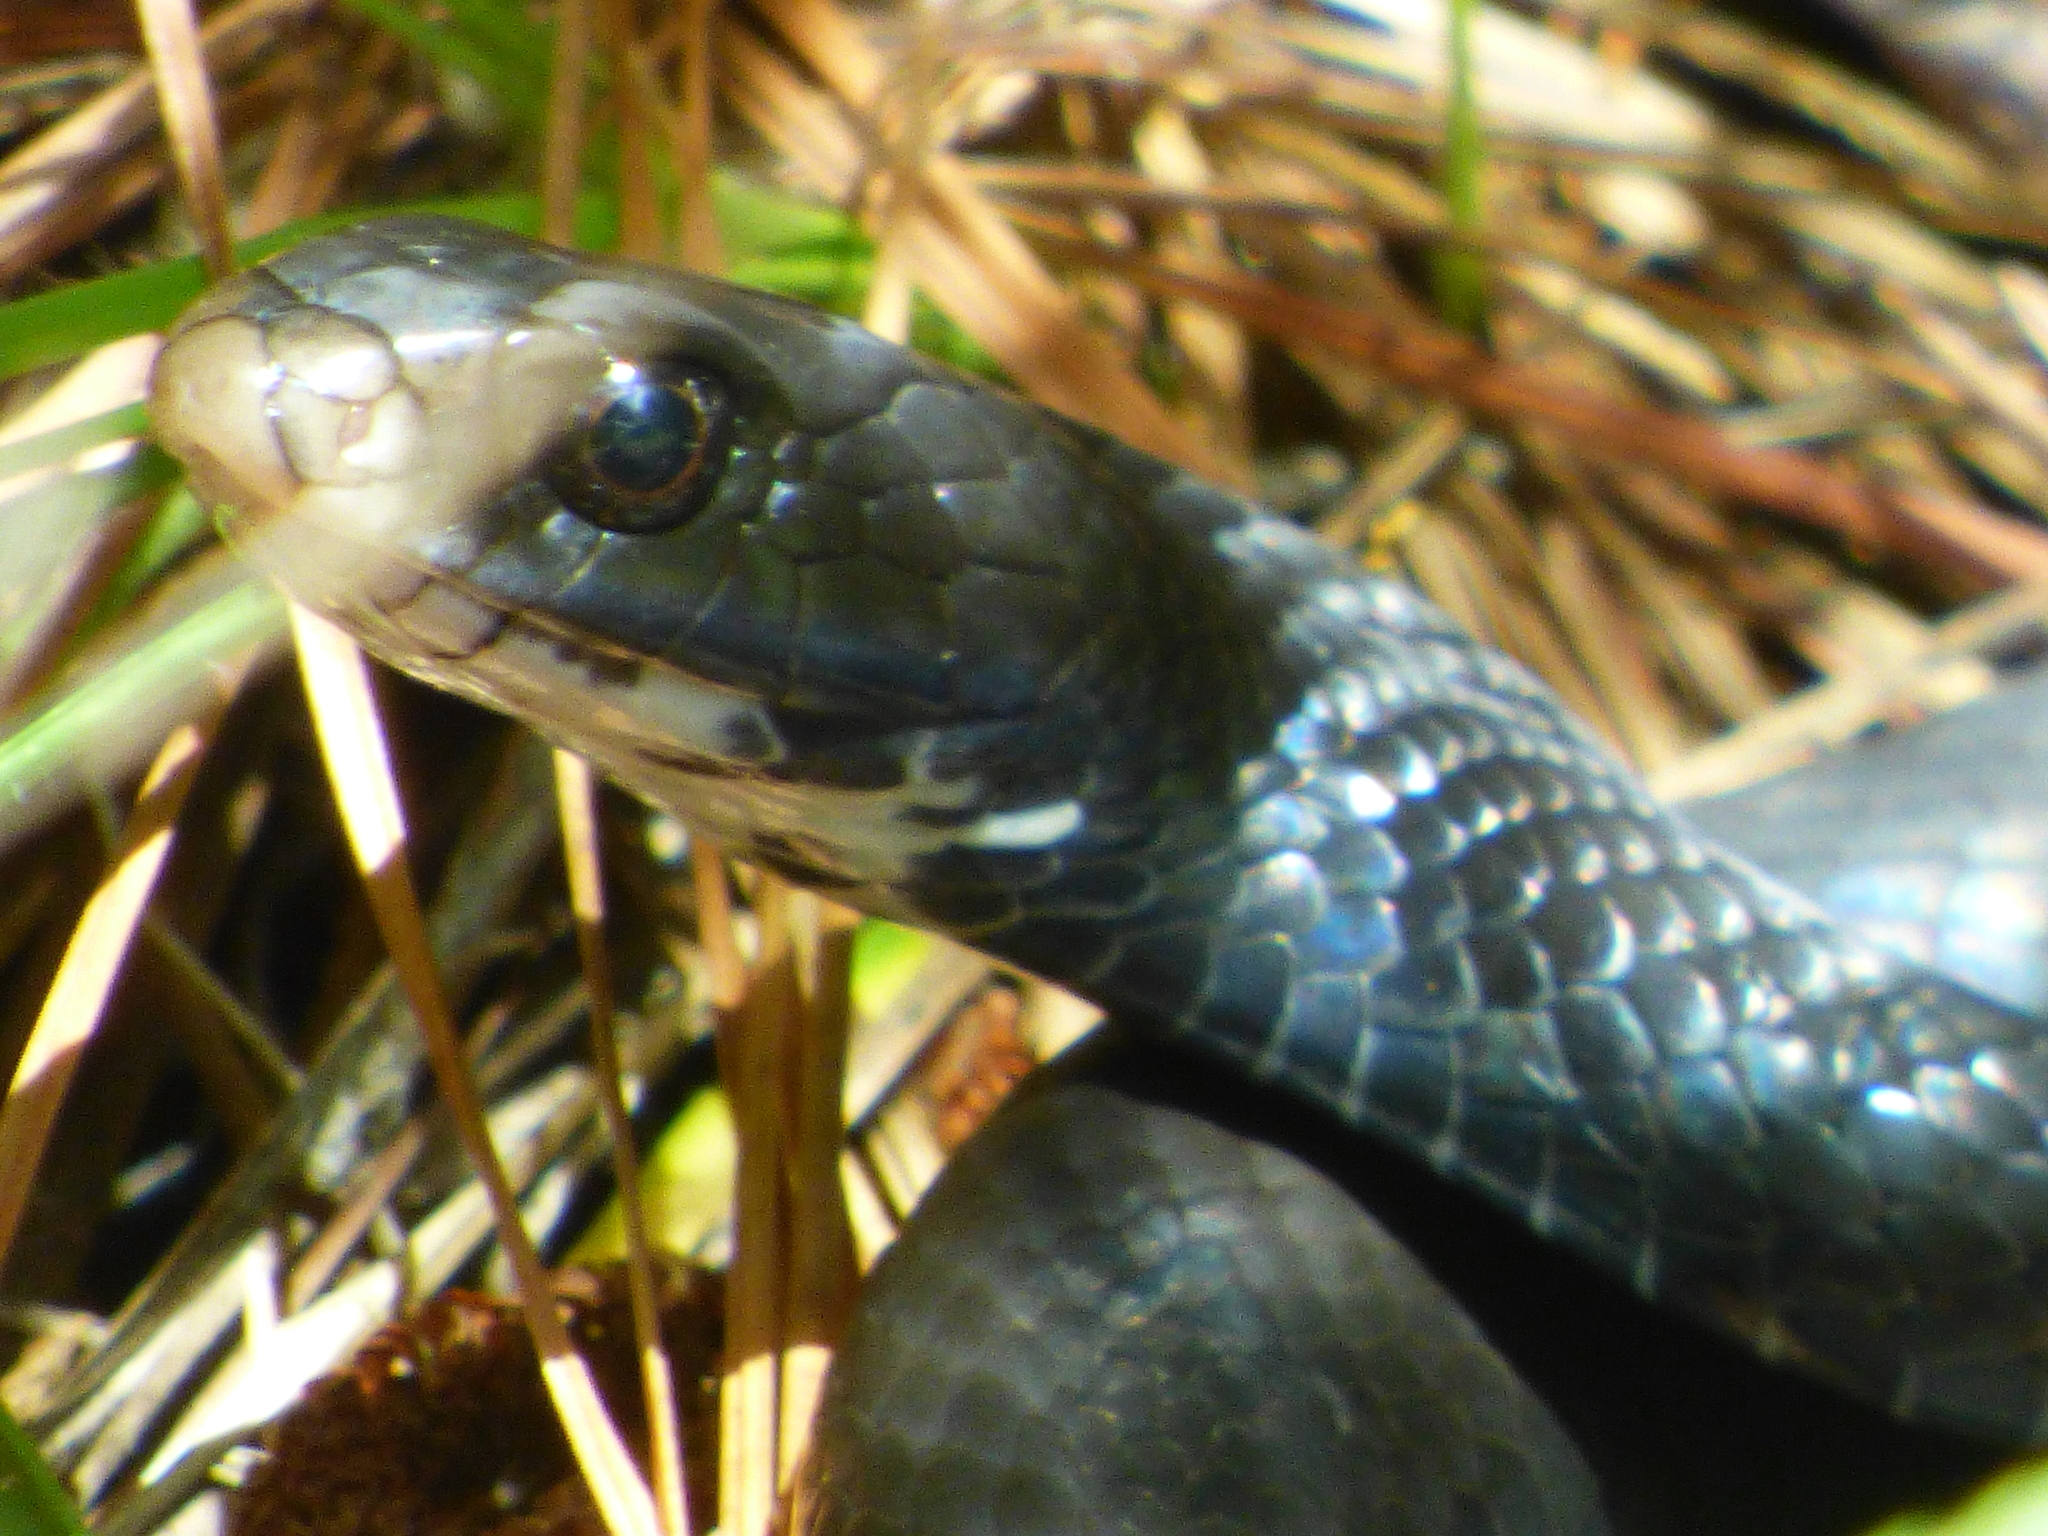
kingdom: Animalia
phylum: Chordata
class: Squamata
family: Colubridae
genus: Coluber
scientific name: Coluber constrictor
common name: Eastern racer
